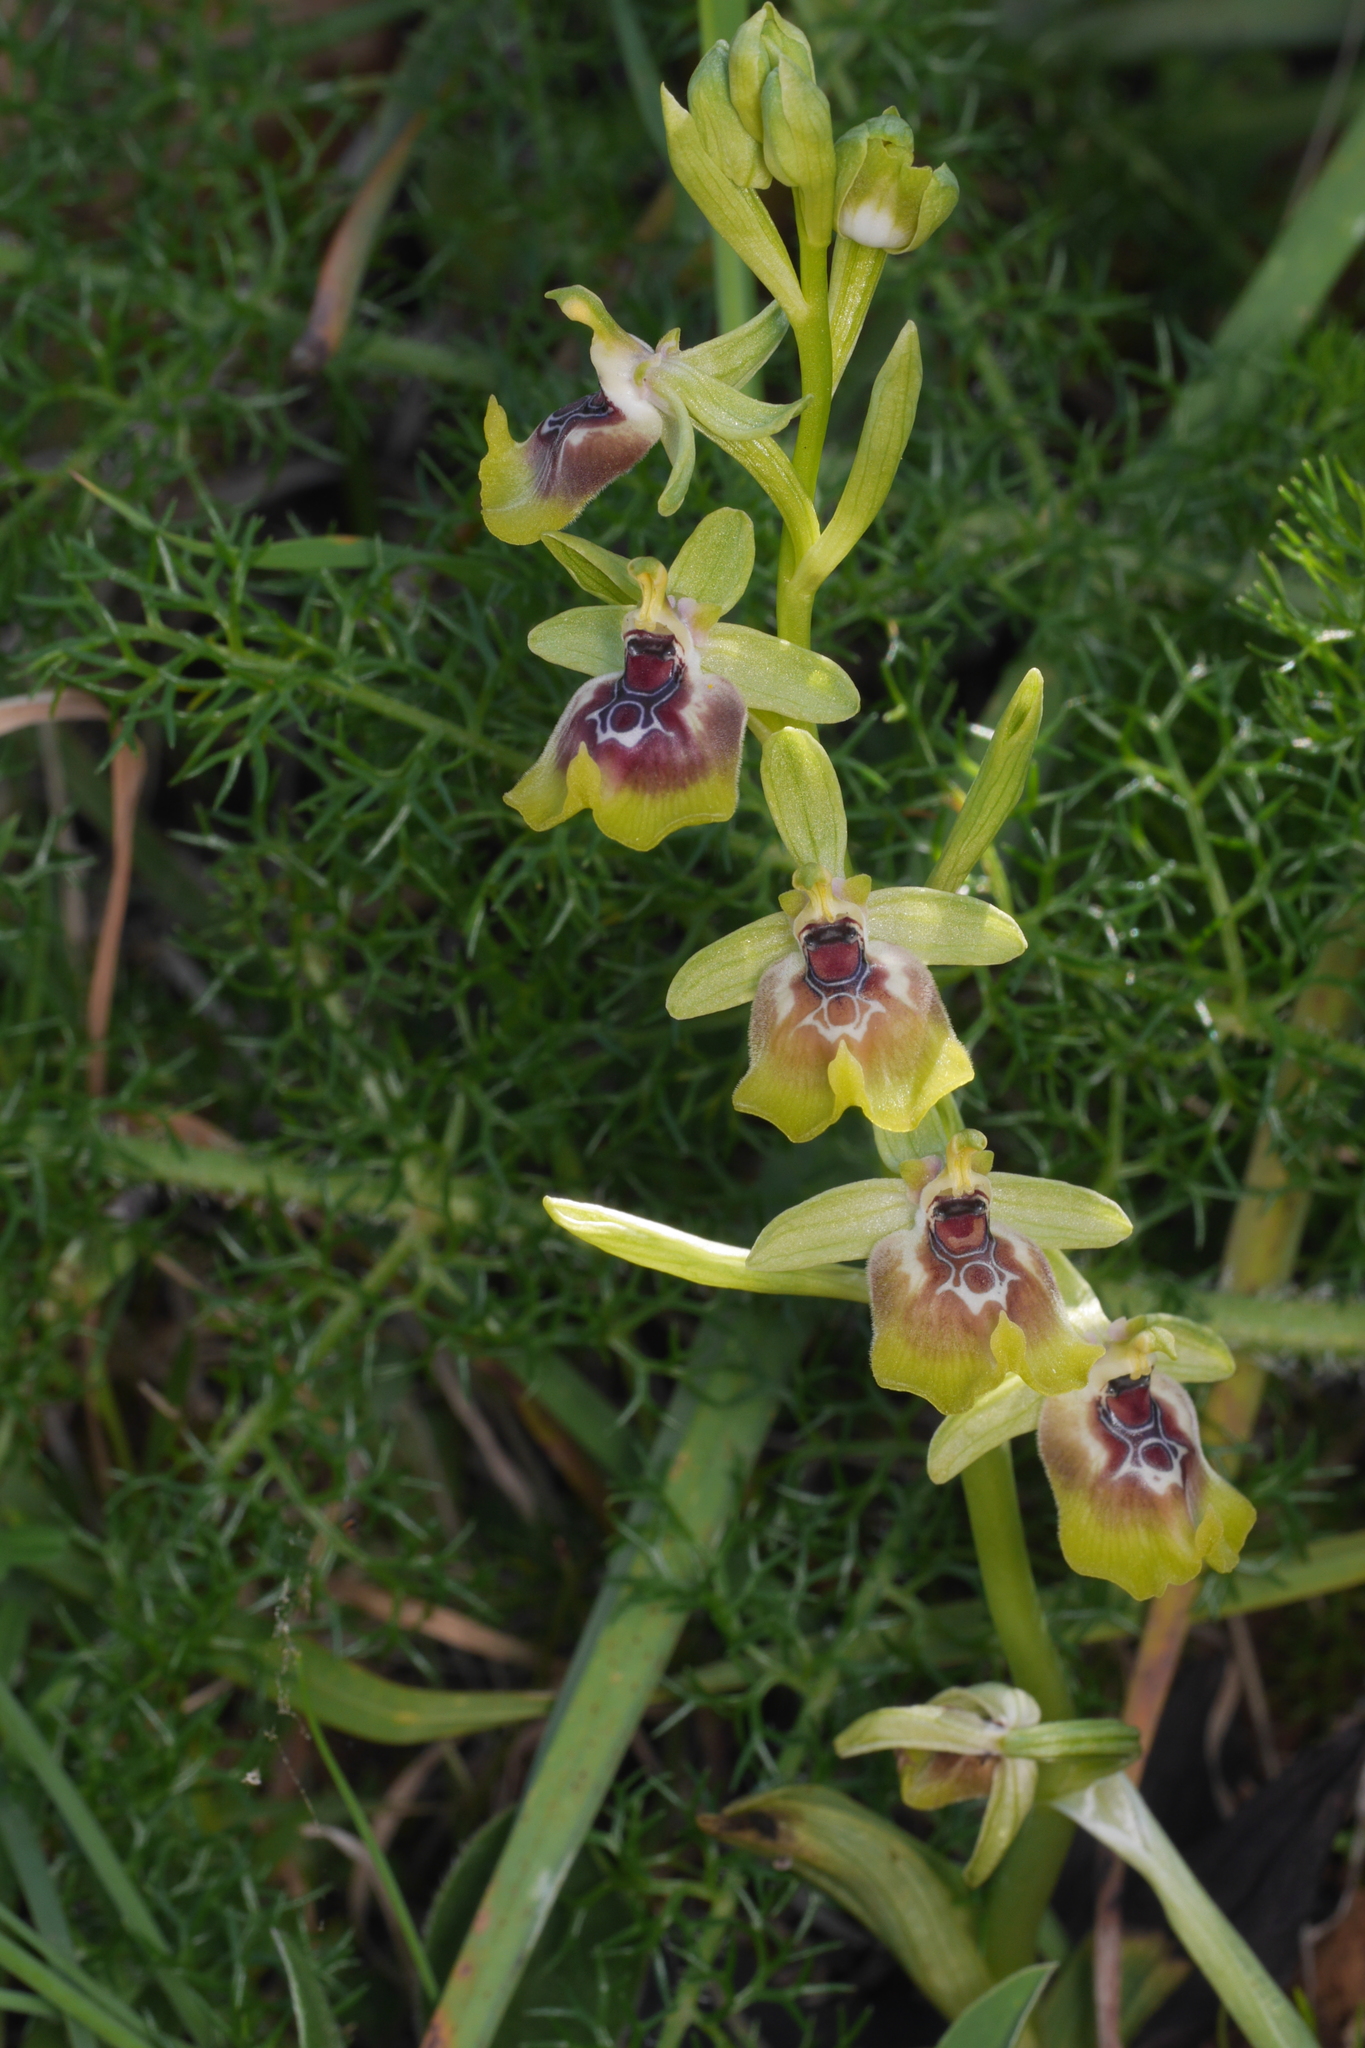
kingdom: Plantae
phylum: Tracheophyta
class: Liliopsida
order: Asparagales
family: Orchidaceae
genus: Ophrys
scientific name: Ophrys holosericea
